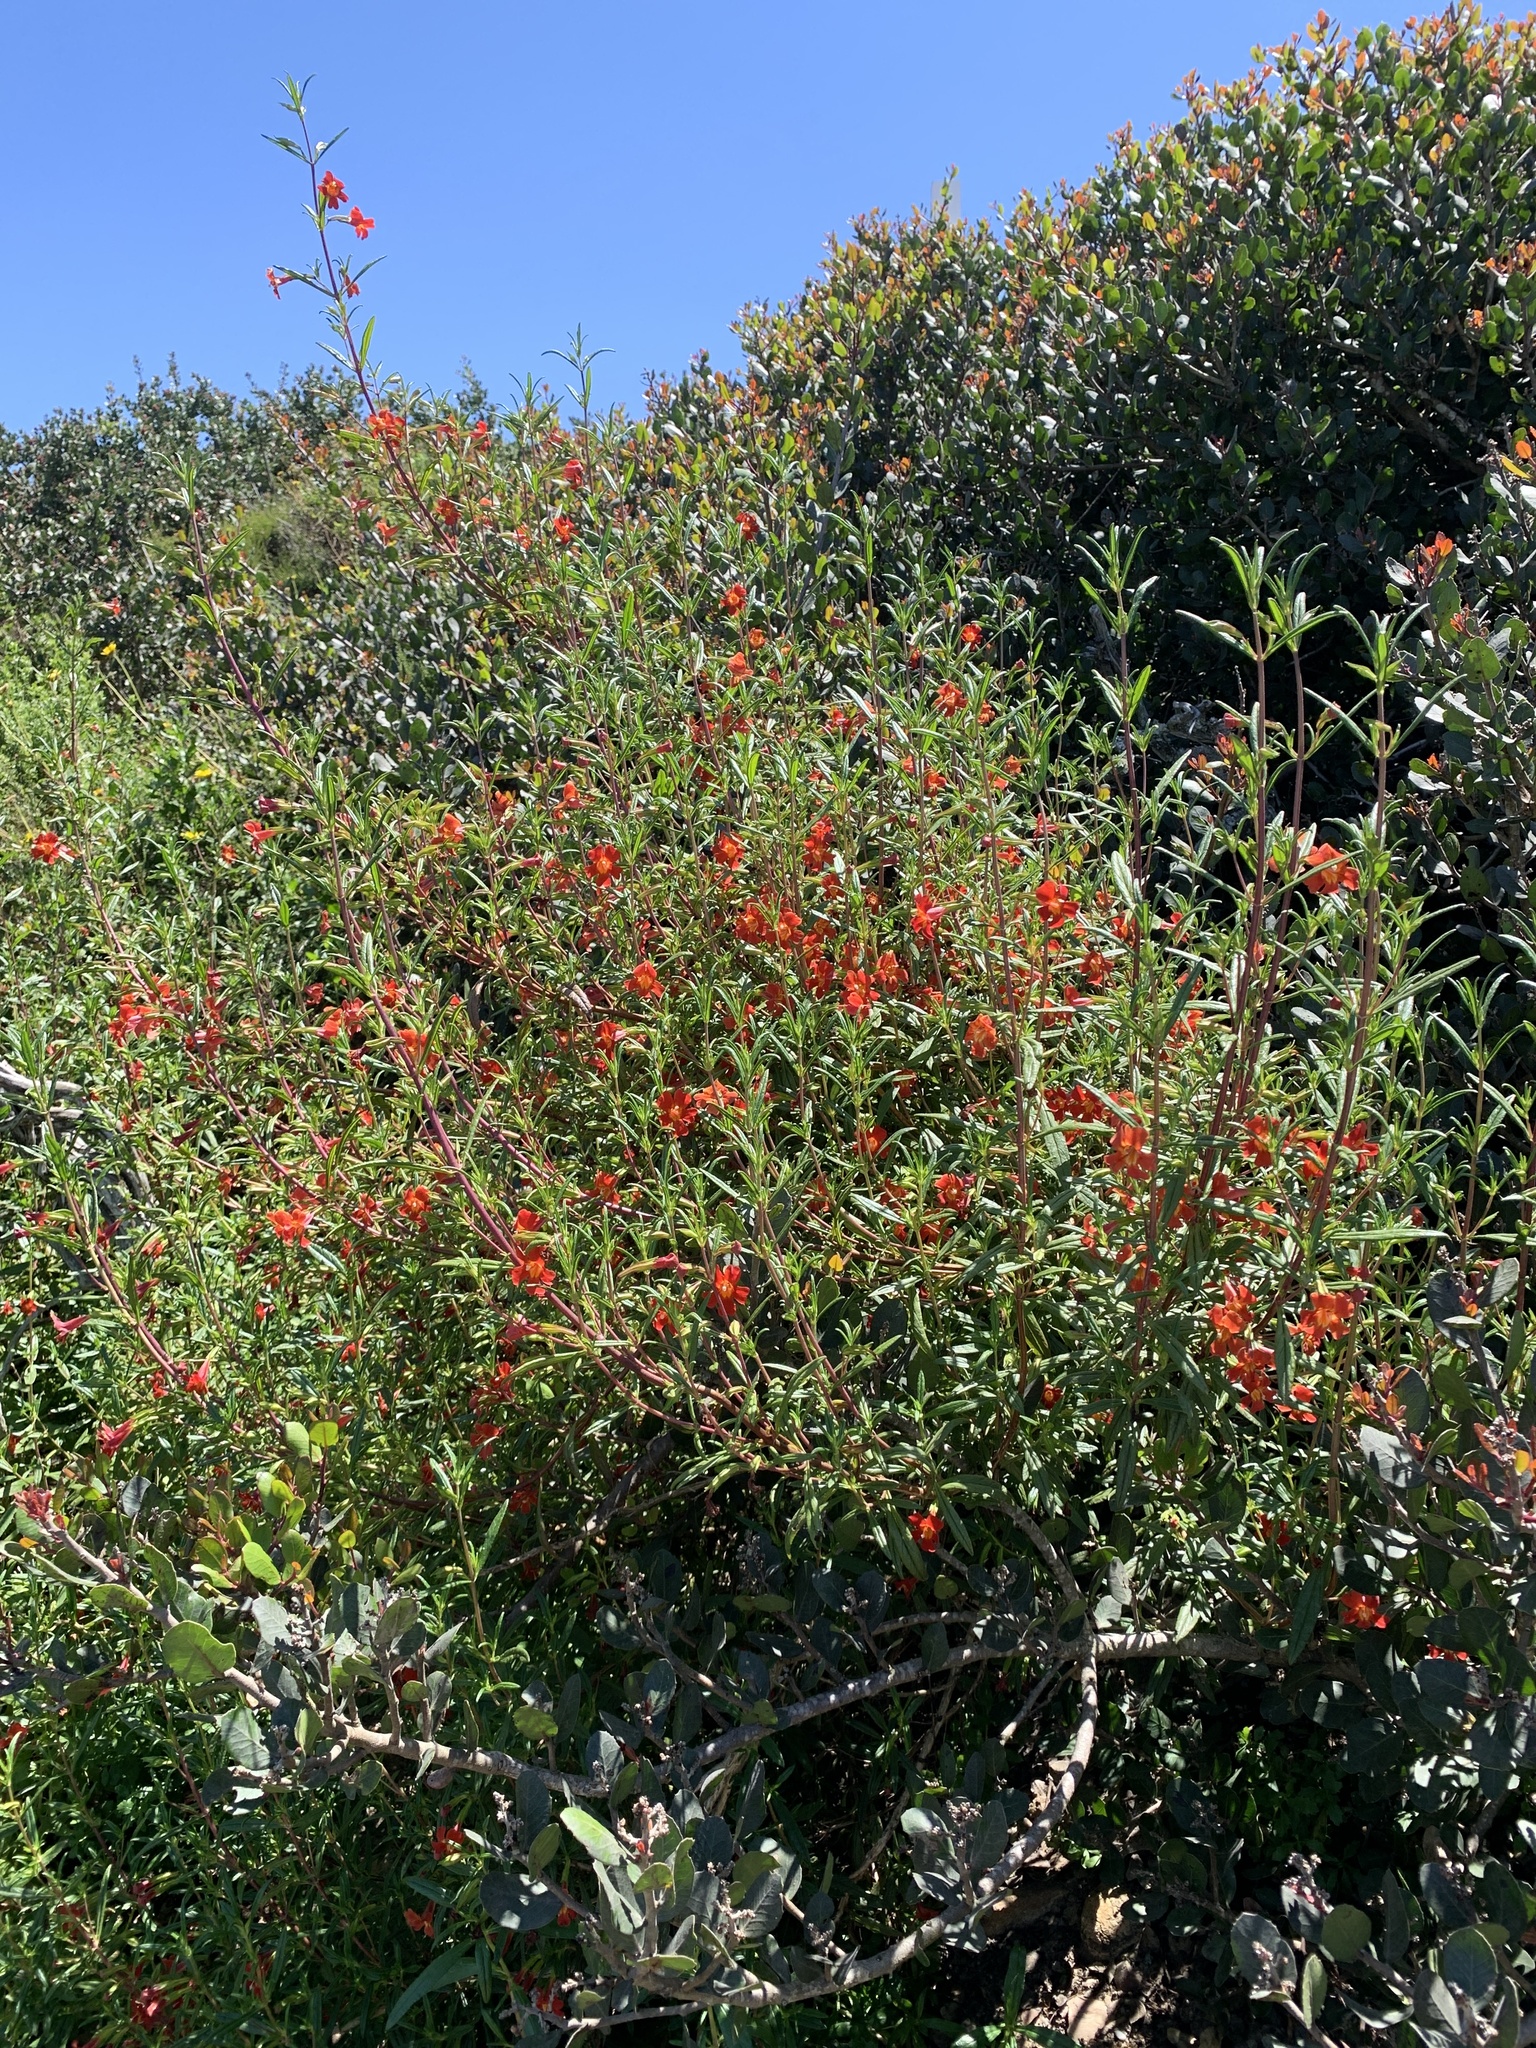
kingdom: Plantae
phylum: Tracheophyta
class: Magnoliopsida
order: Lamiales
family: Phrymaceae
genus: Diplacus
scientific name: Diplacus puniceus
